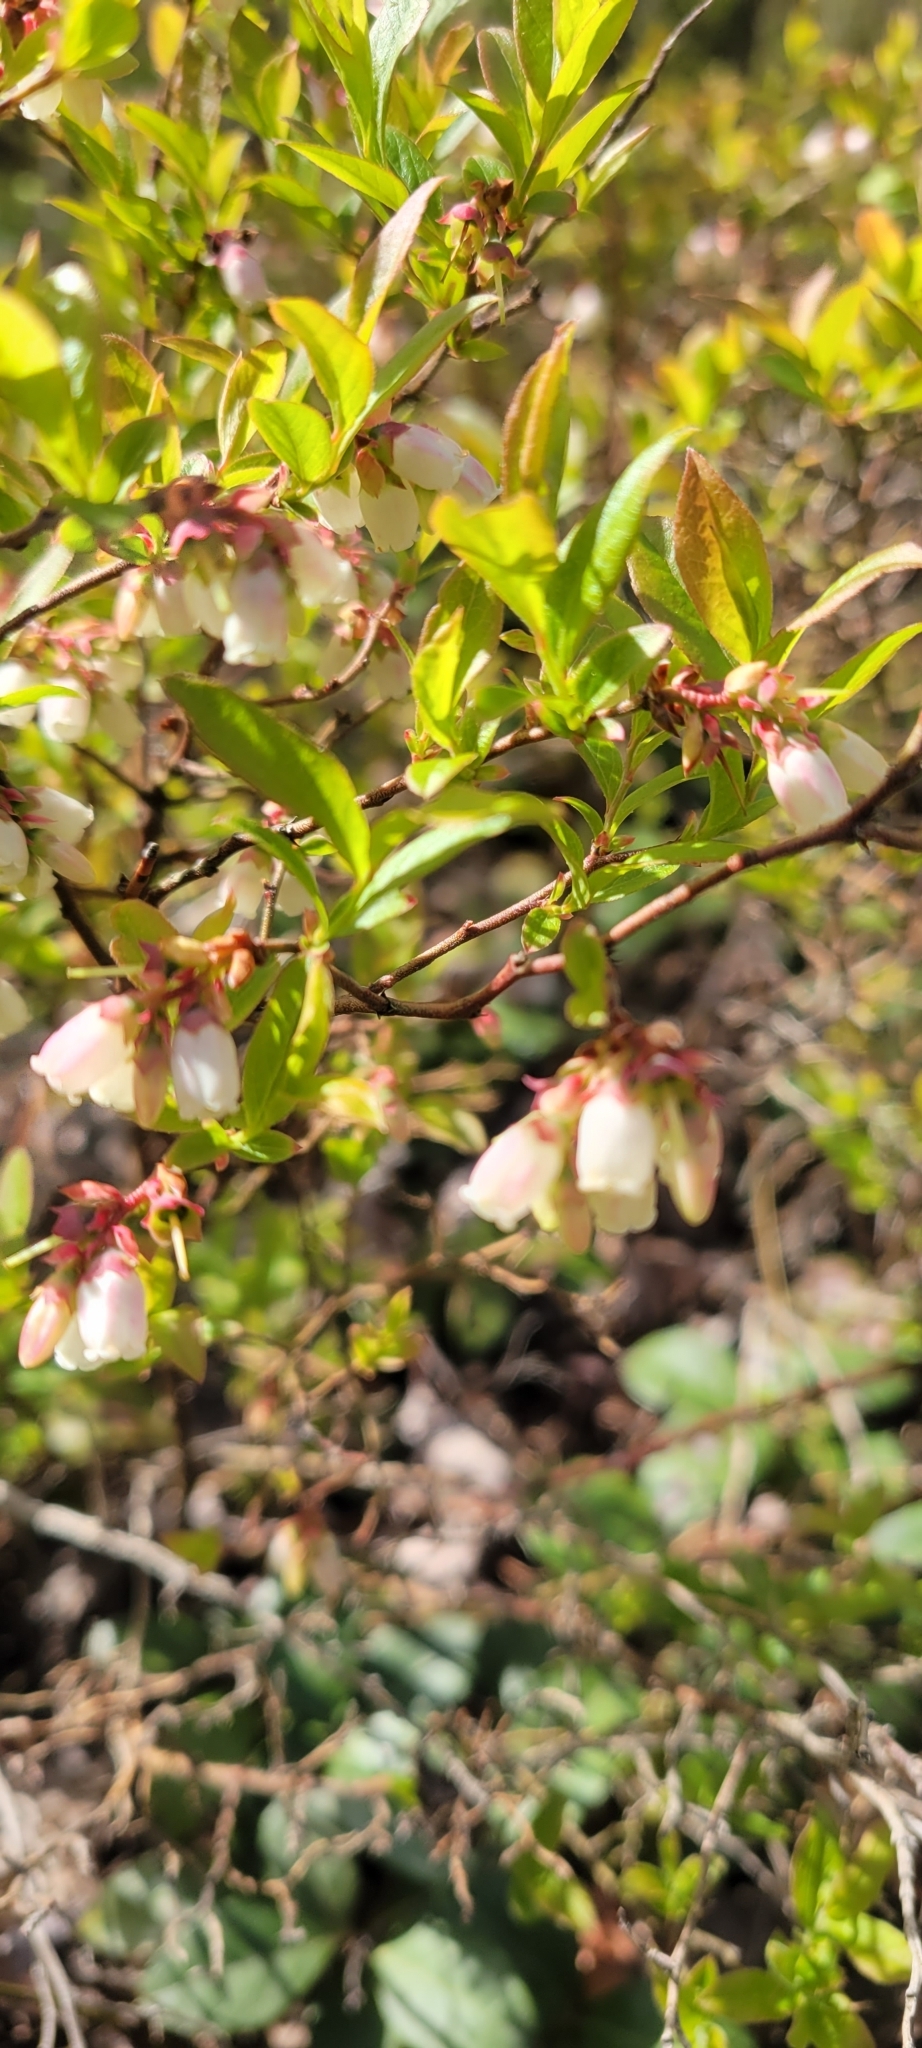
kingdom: Plantae
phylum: Tracheophyta
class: Magnoliopsida
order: Ericales
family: Ericaceae
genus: Vaccinium
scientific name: Vaccinium angustifolium
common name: Early lowbush blueberry
